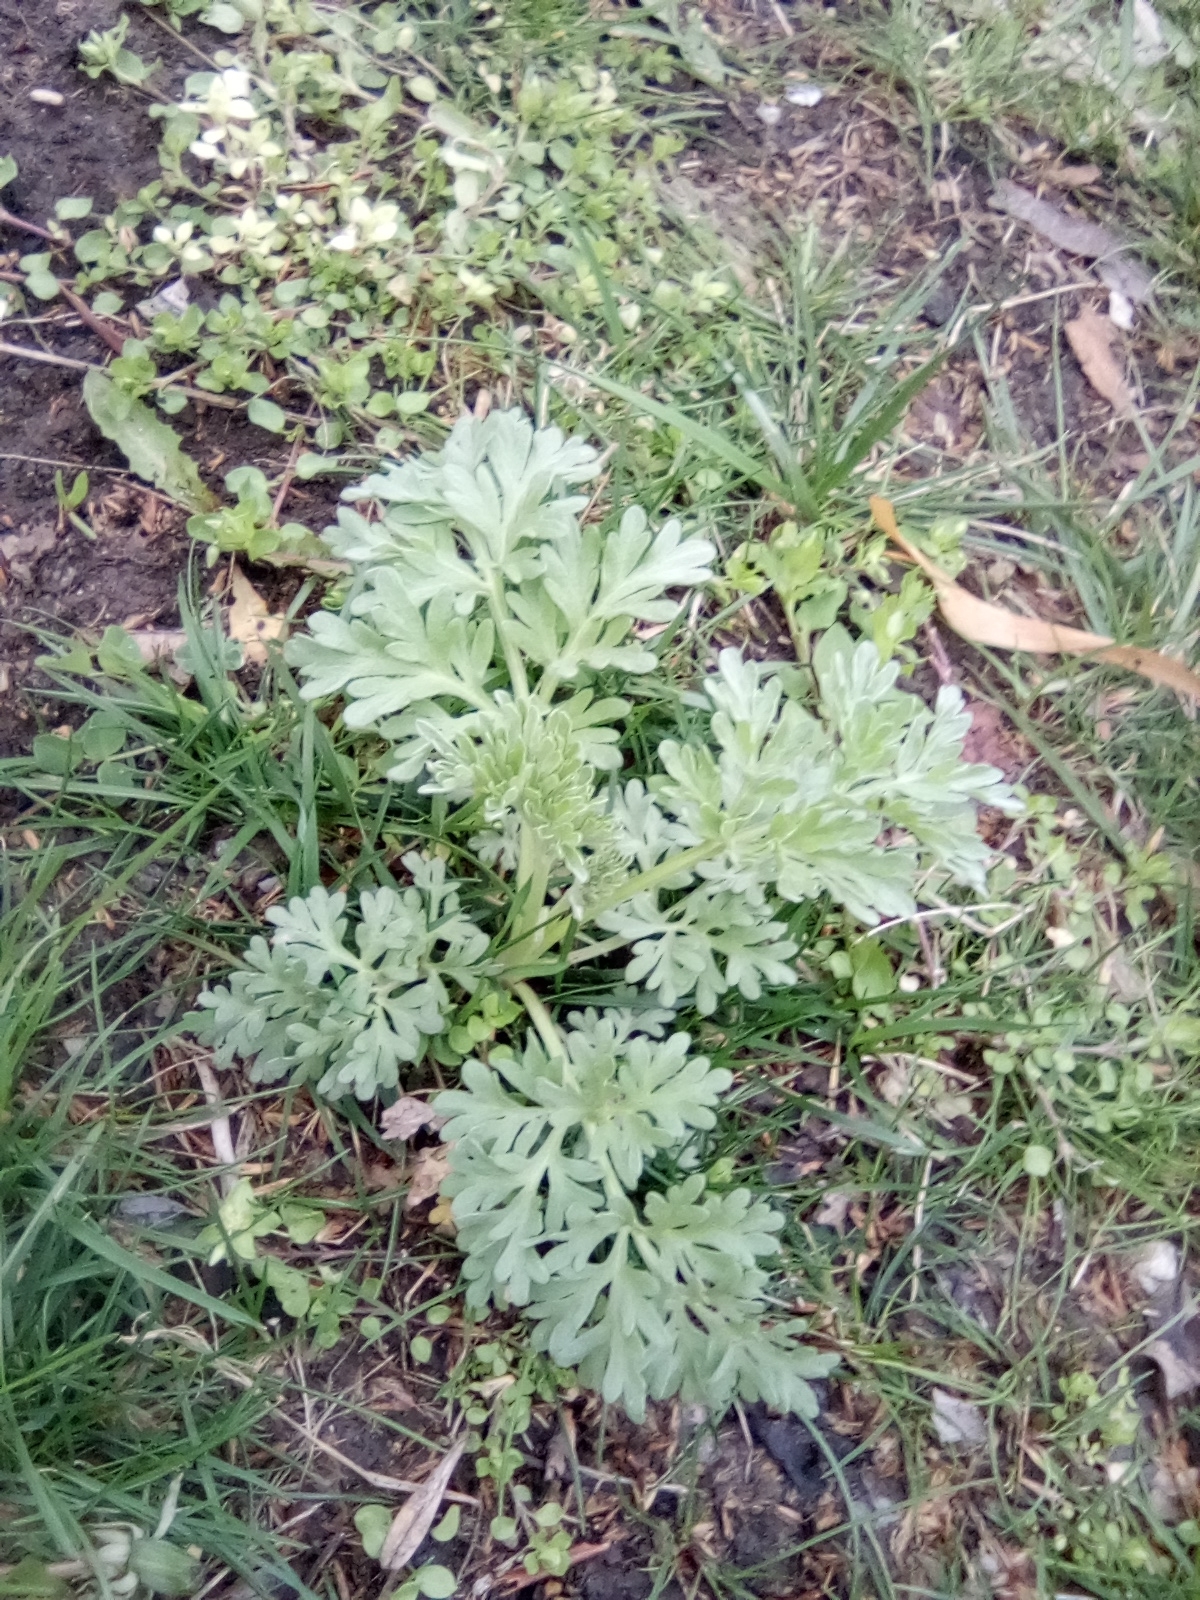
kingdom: Plantae
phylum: Tracheophyta
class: Magnoliopsida
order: Asterales
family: Asteraceae
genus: Artemisia
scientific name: Artemisia absinthium
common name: Wormwood
